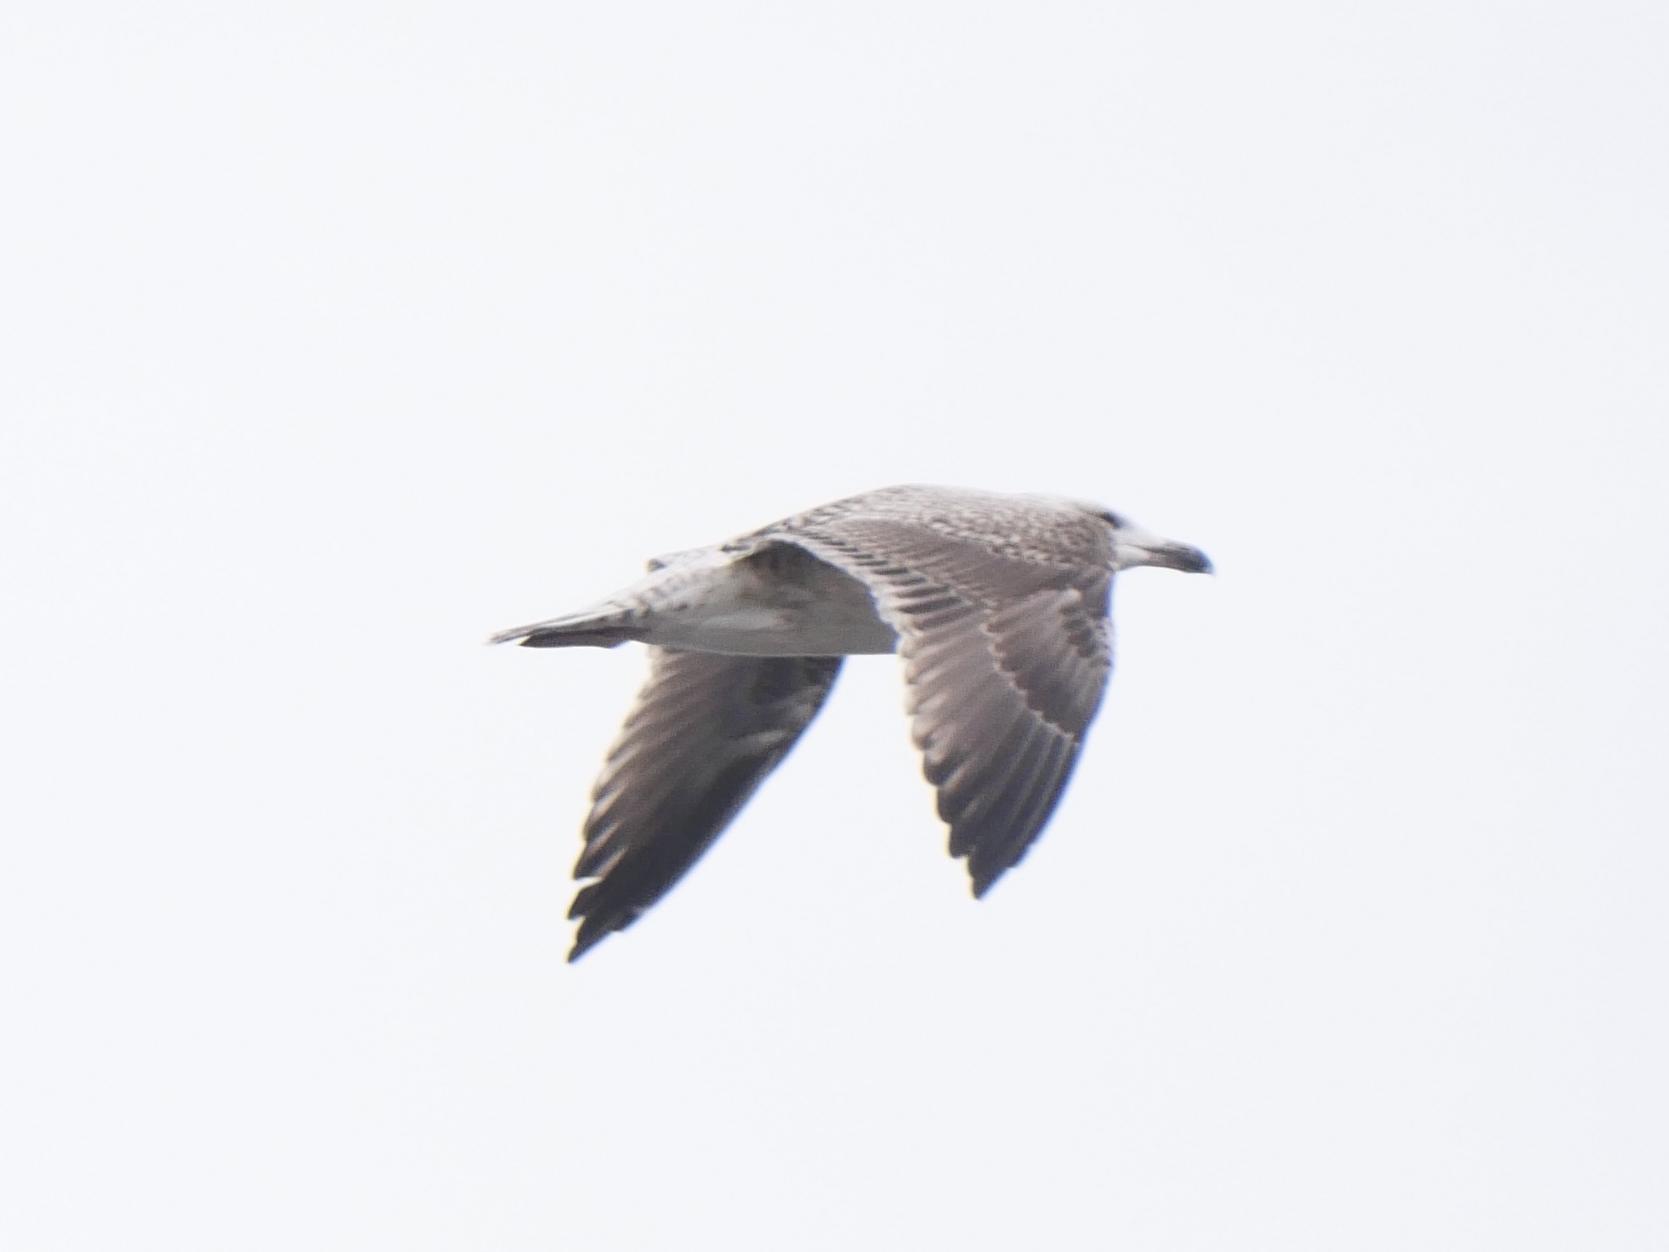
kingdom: Animalia
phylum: Chordata
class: Aves
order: Charadriiformes
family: Laridae
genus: Larus
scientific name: Larus marinus
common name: Great black-backed gull
